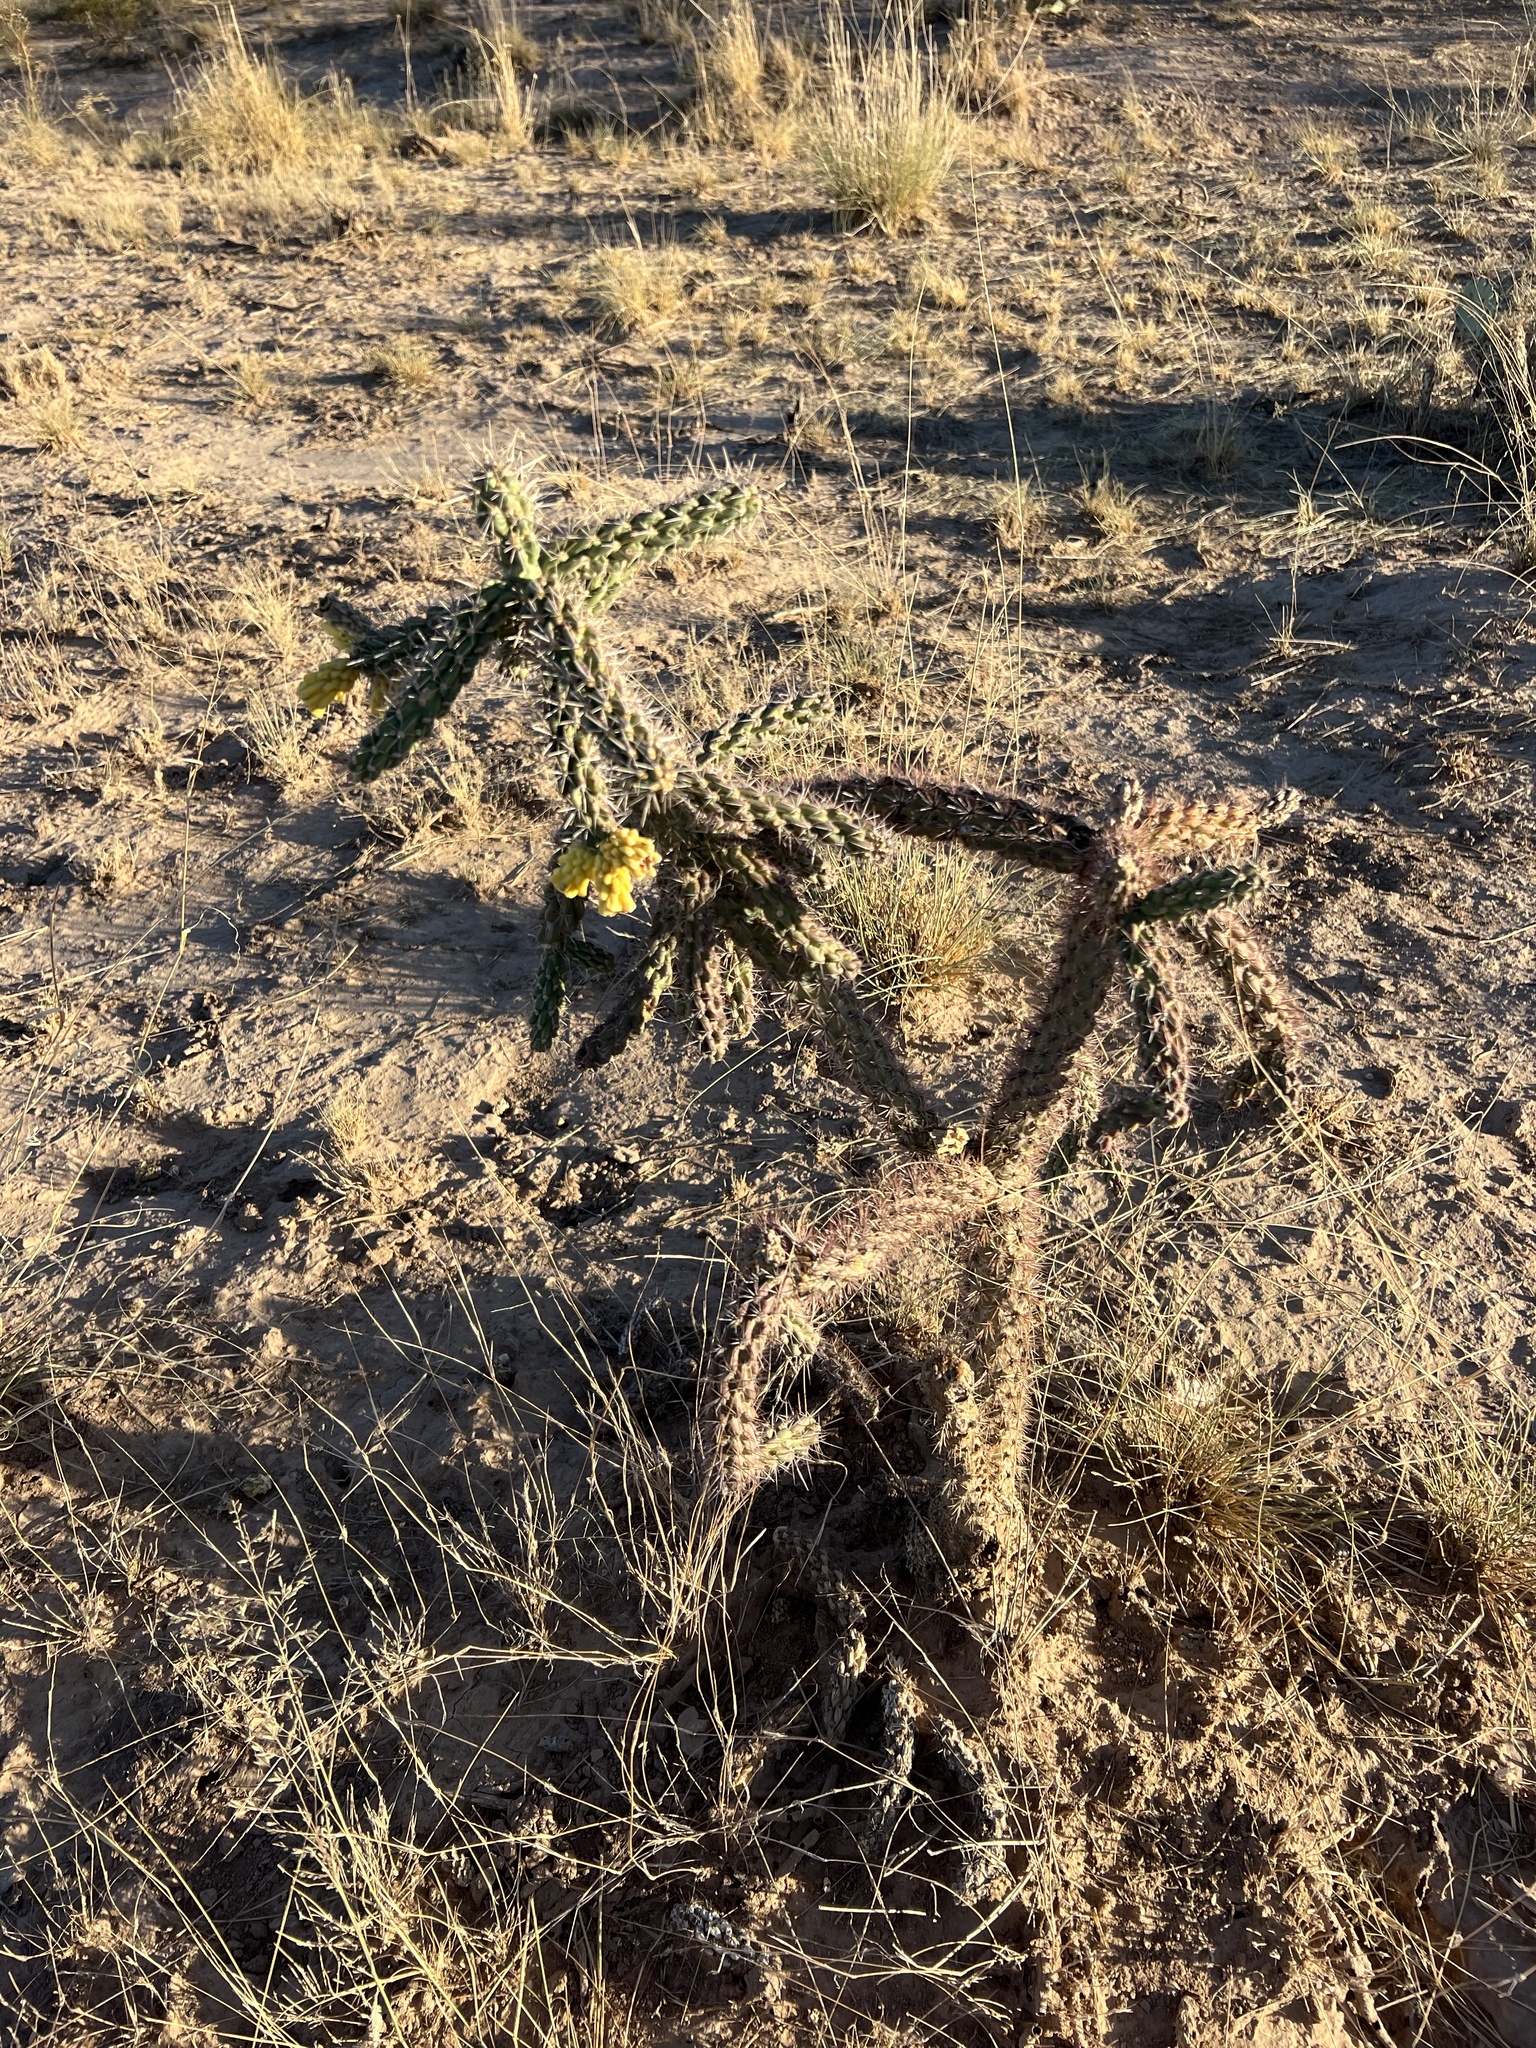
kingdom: Plantae
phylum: Tracheophyta
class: Magnoliopsida
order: Caryophyllales
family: Cactaceae
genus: Cylindropuntia
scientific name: Cylindropuntia imbricata
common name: Candelabrum cactus
